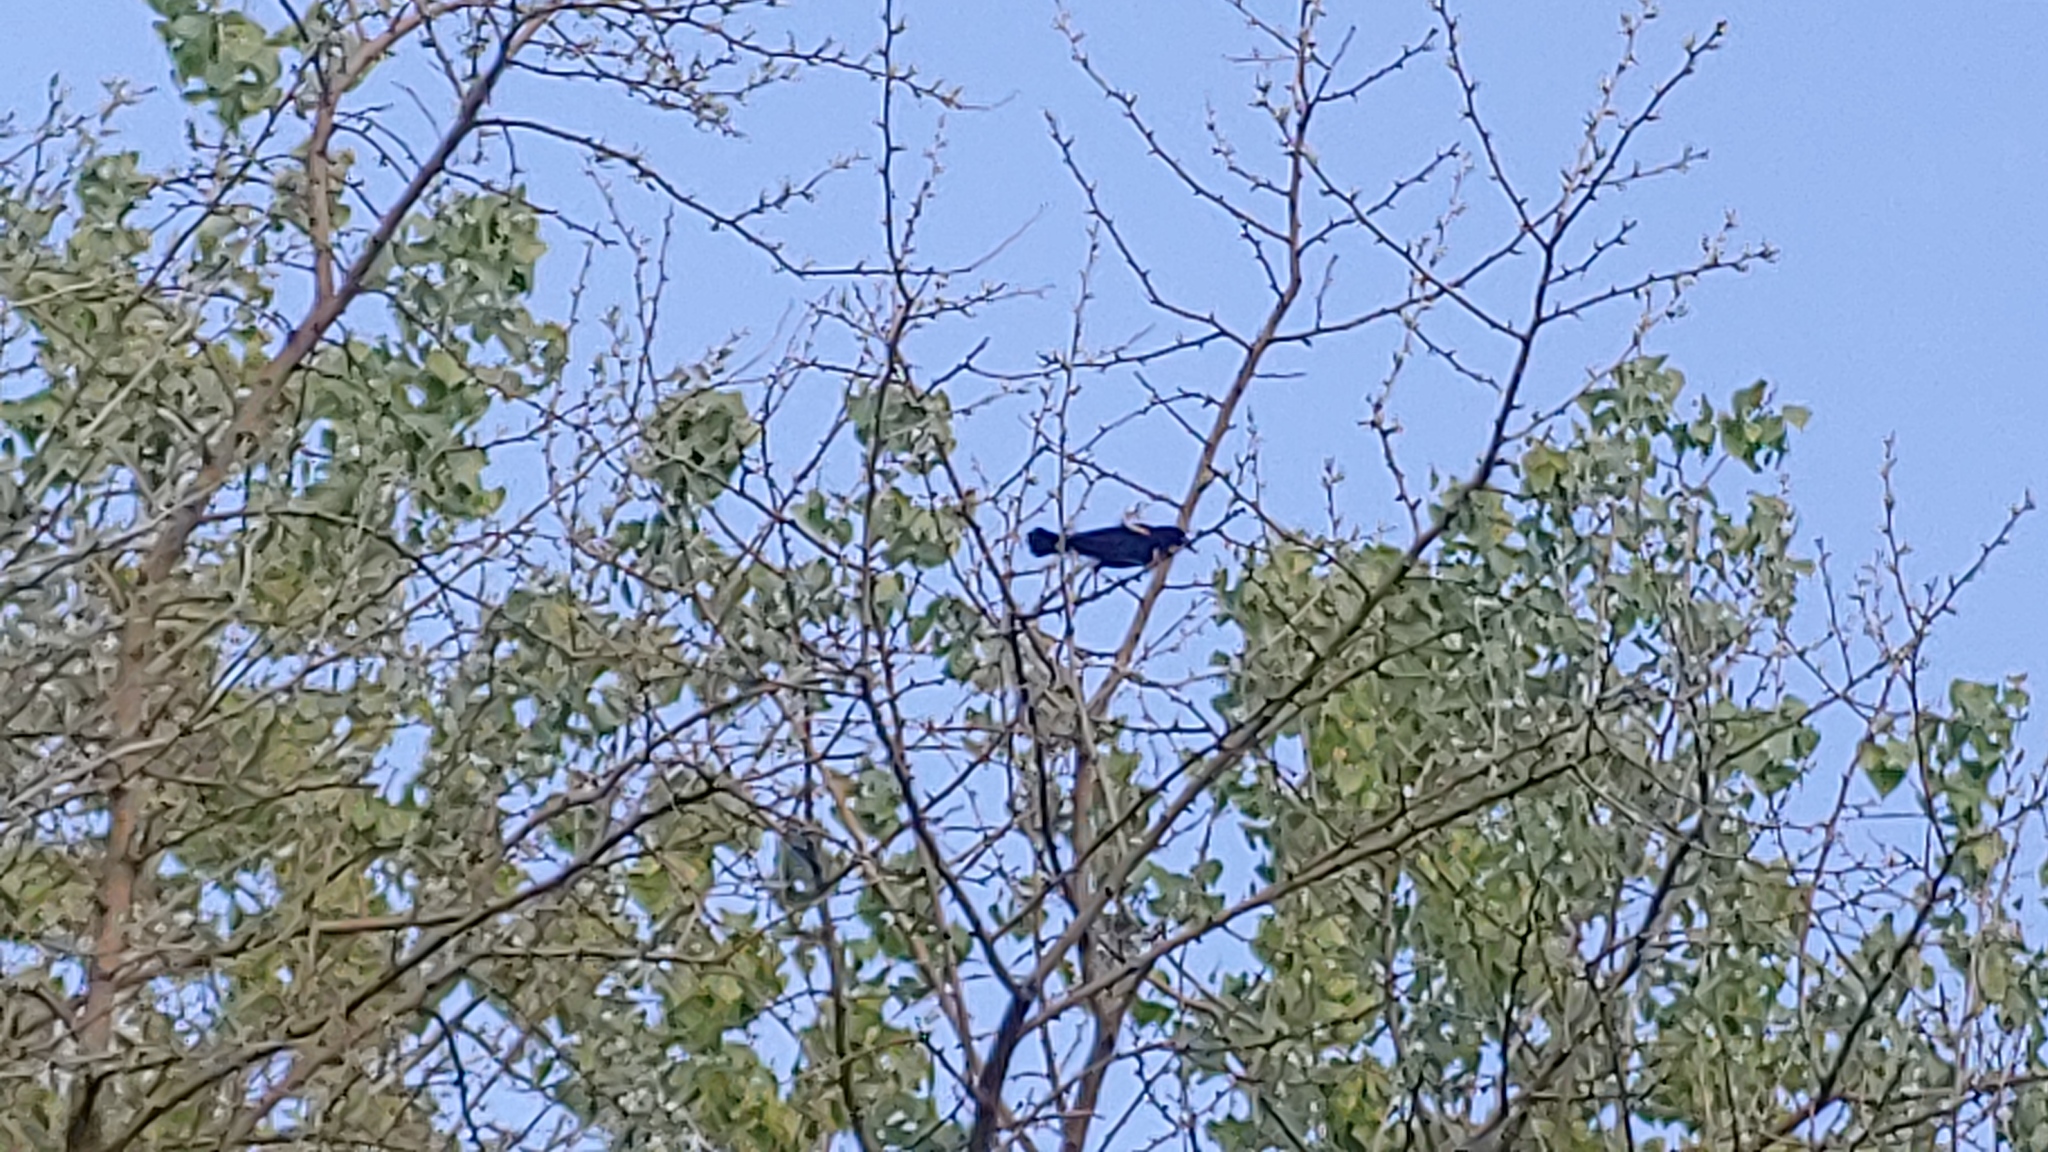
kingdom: Animalia
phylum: Chordata
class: Aves
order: Passeriformes
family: Icteridae
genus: Agelaius
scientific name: Agelaius phoeniceus
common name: Red-winged blackbird
